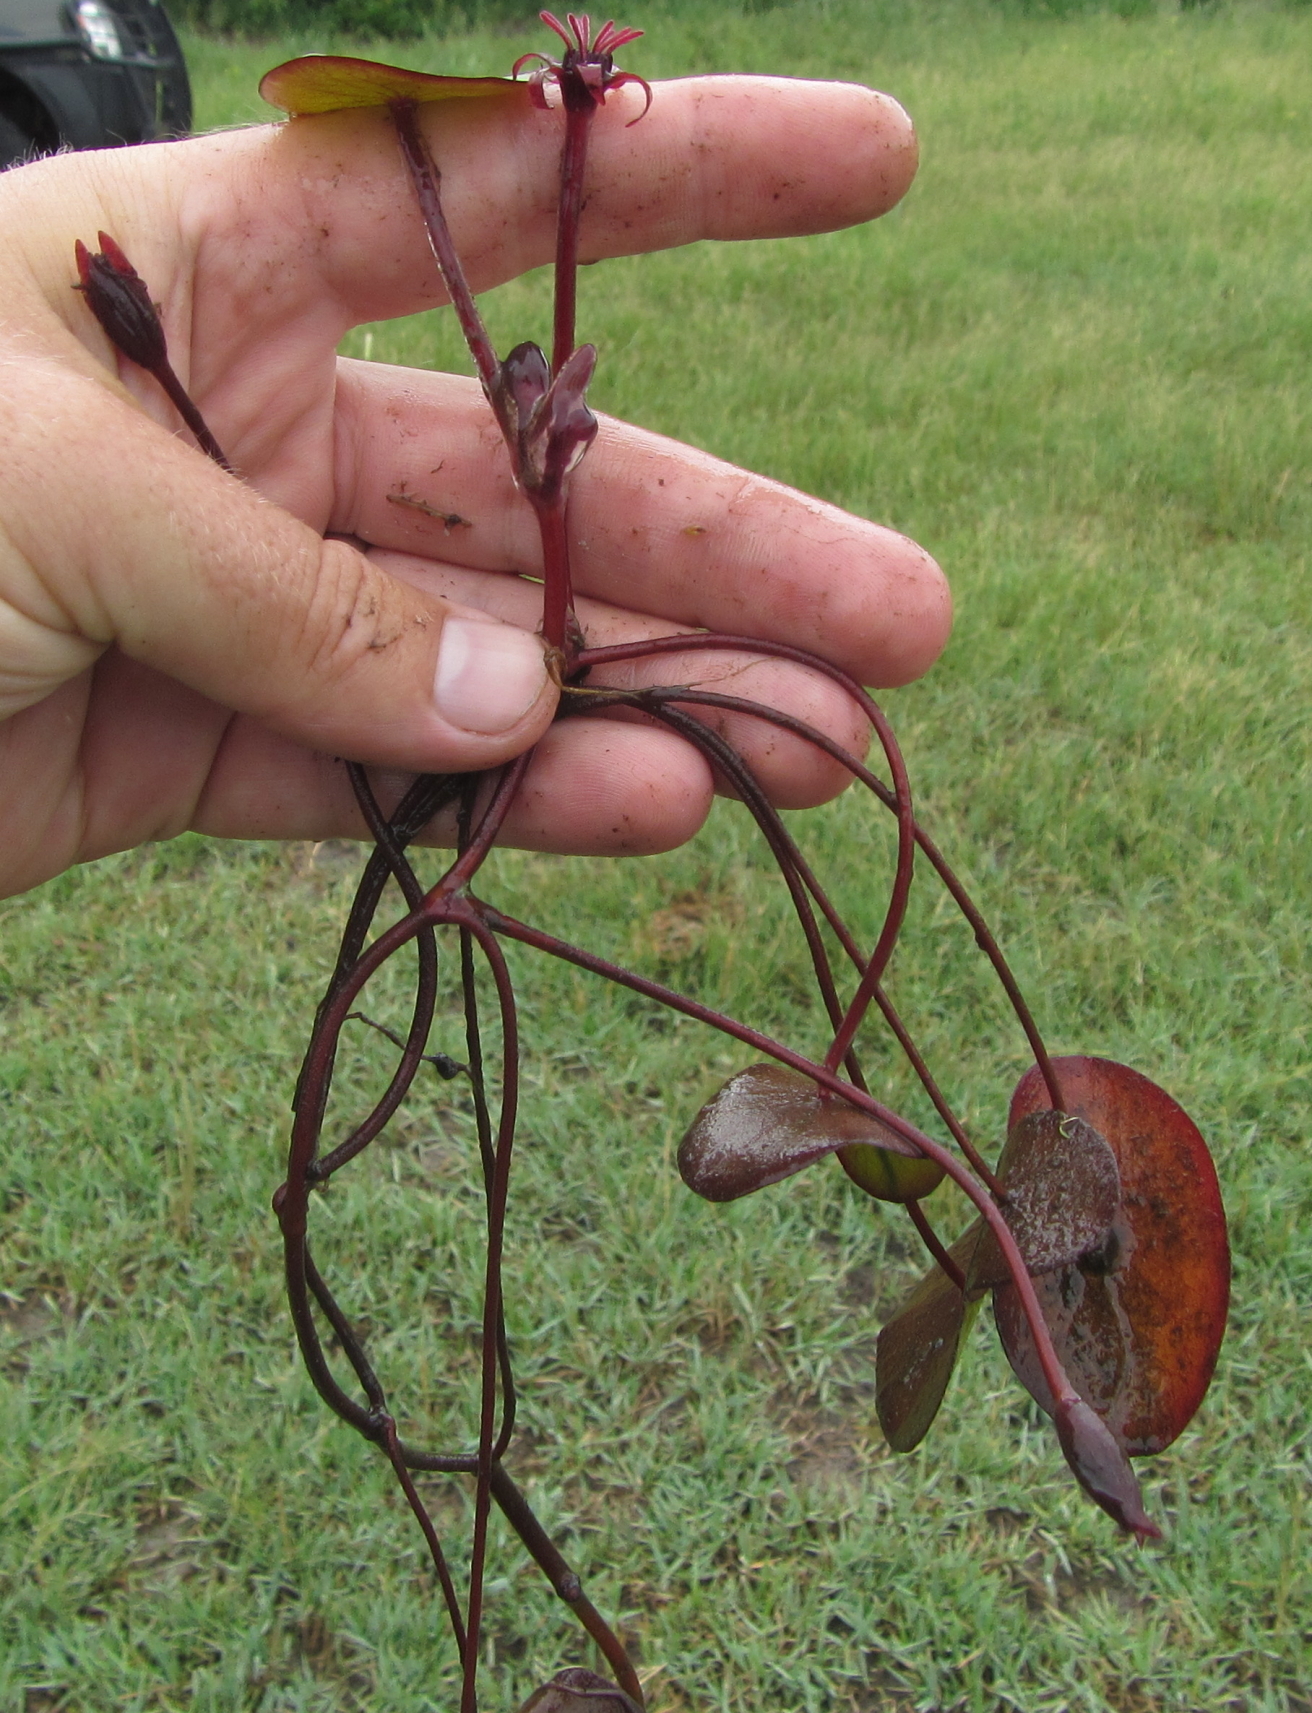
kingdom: Plantae
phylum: Tracheophyta
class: Magnoliopsida
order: Nymphaeales
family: Cabombaceae
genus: Brasenia
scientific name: Brasenia schreberi
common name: Water-shield
